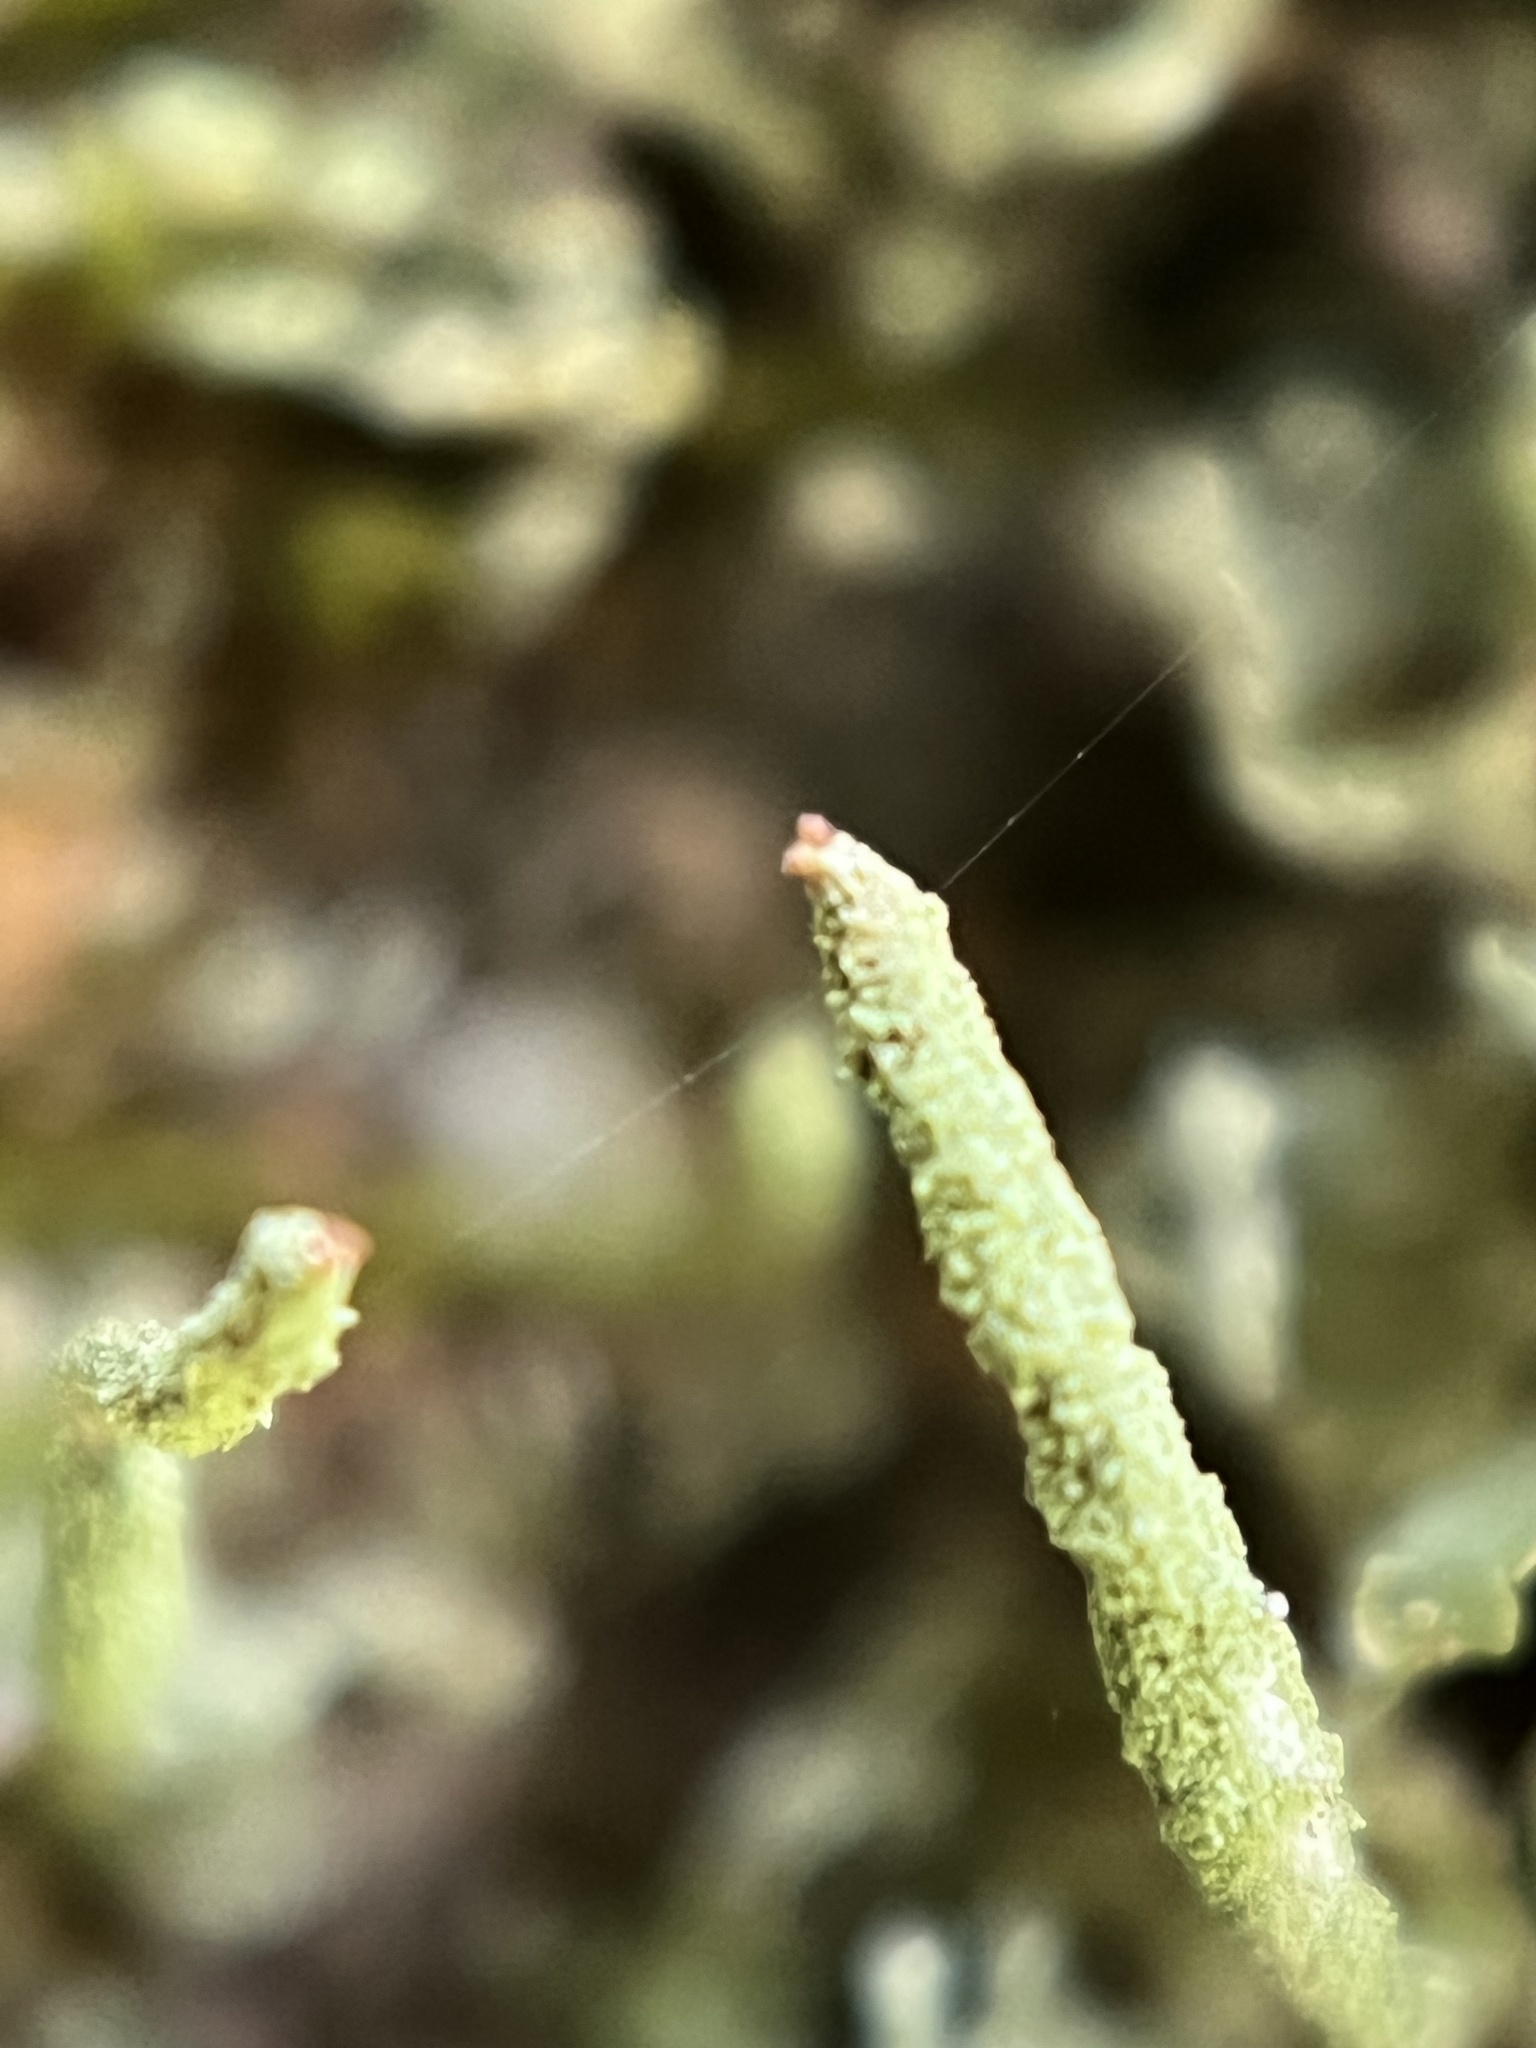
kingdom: Fungi
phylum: Ascomycota
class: Lecanoromycetes
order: Lecanorales
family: Cladoniaceae
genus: Cladonia
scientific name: Cladonia coniocraea
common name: Common powderhorn
